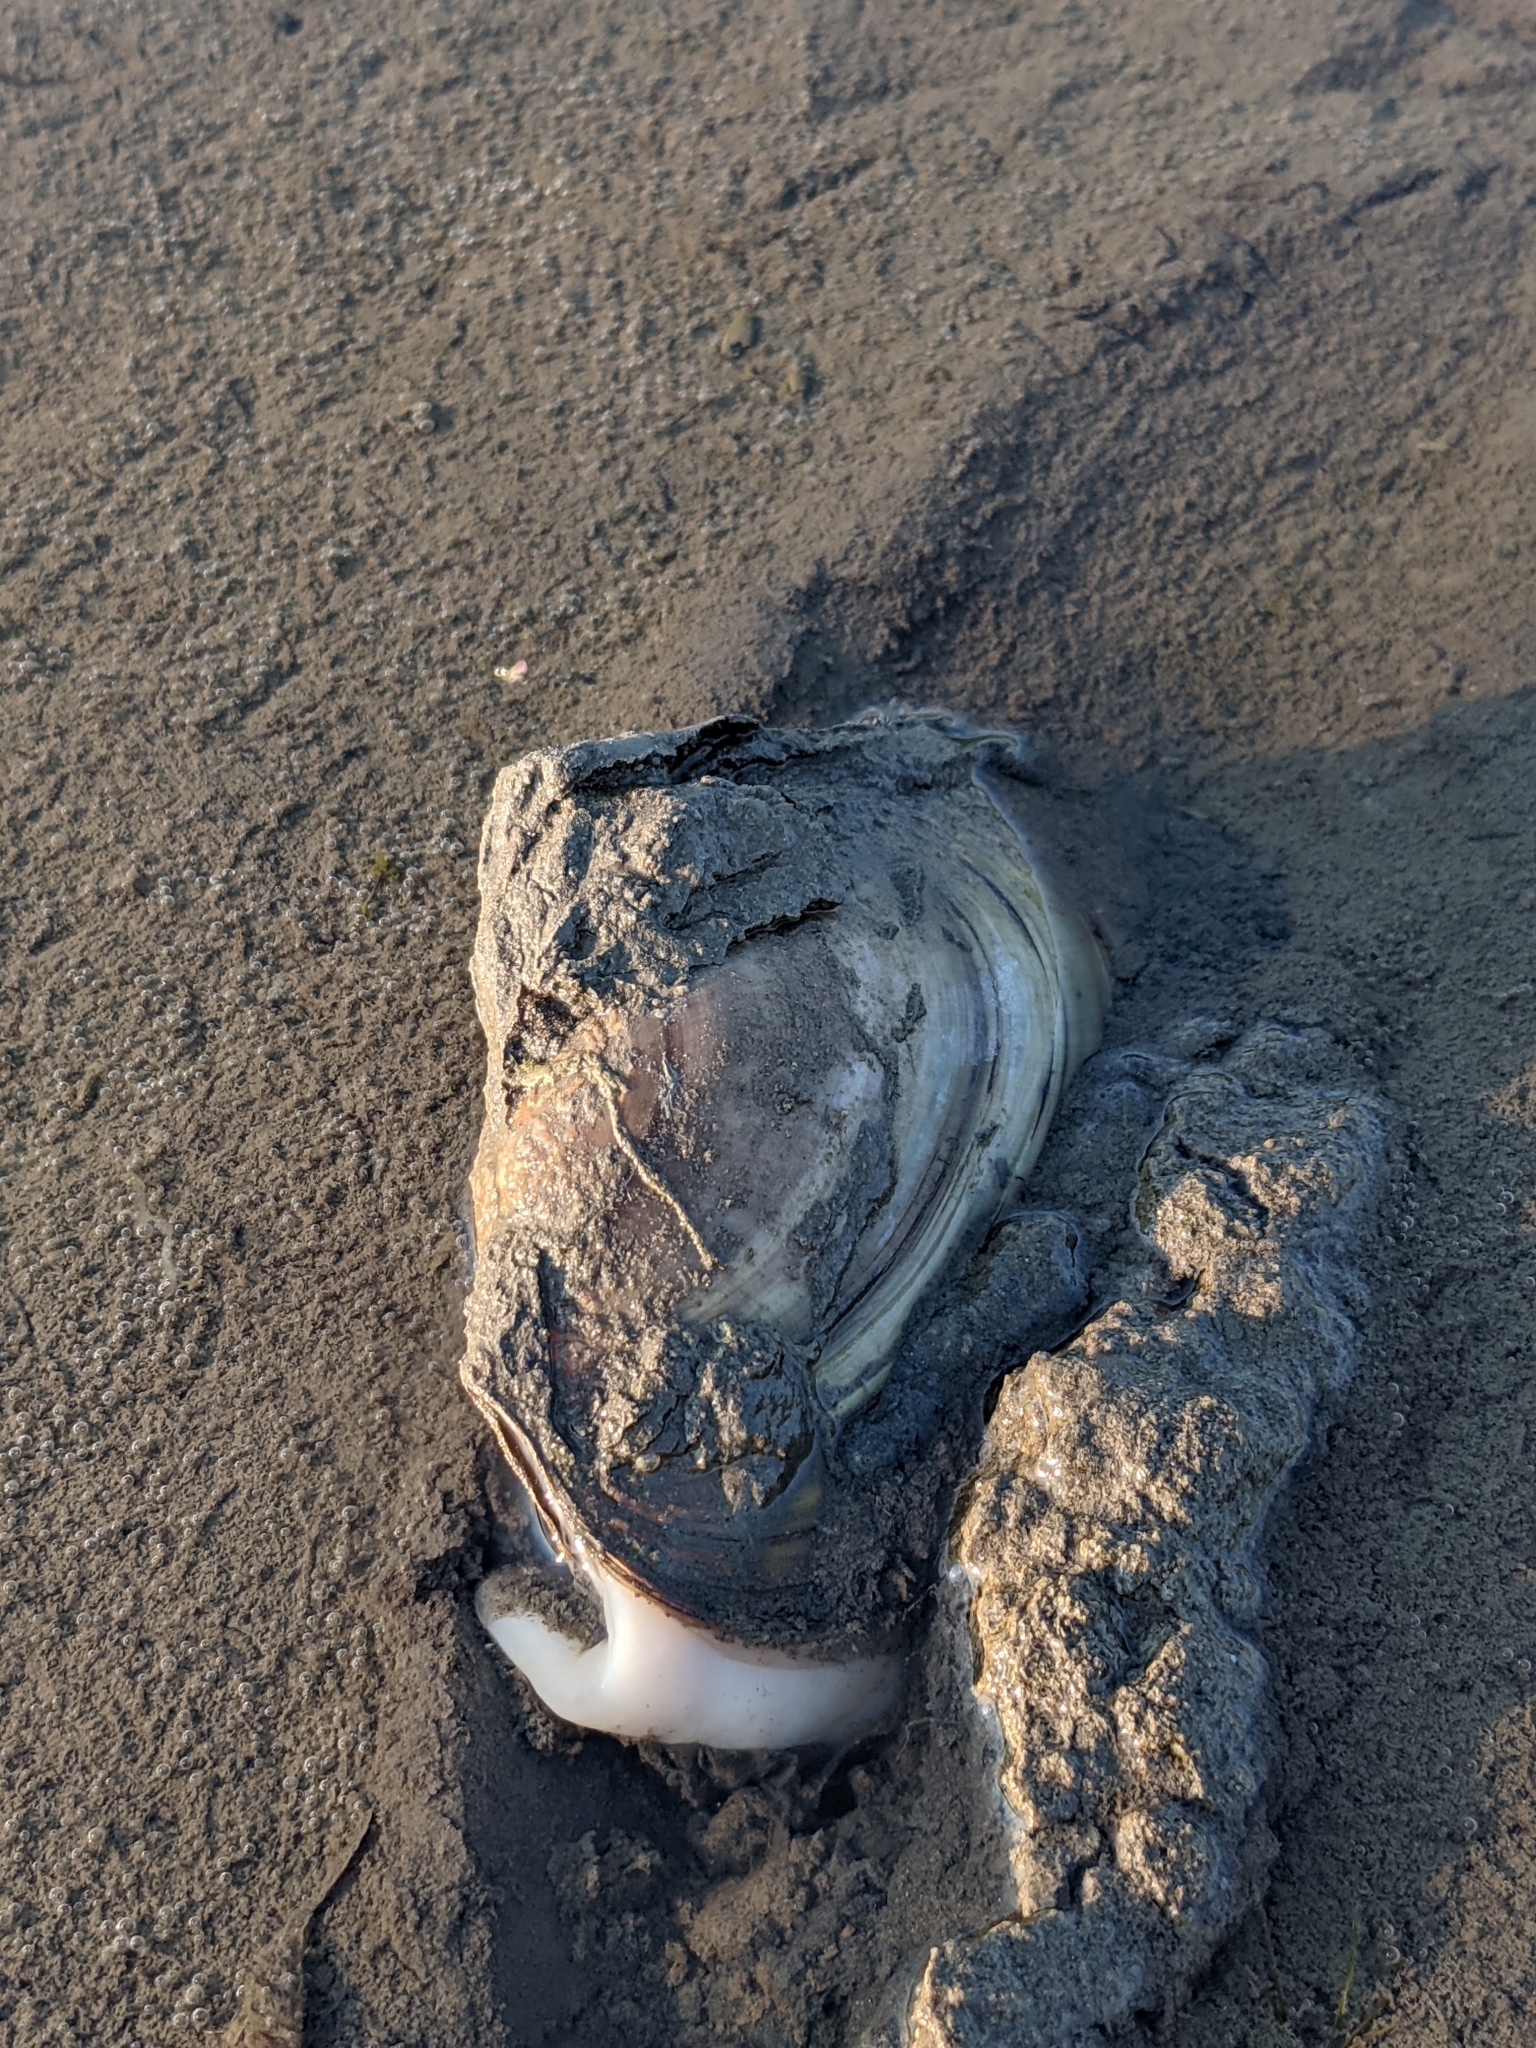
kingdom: Animalia
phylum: Mollusca
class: Bivalvia
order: Unionida
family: Unionidae
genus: Potamilus
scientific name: Potamilus fragilis
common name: Fragile papershell
